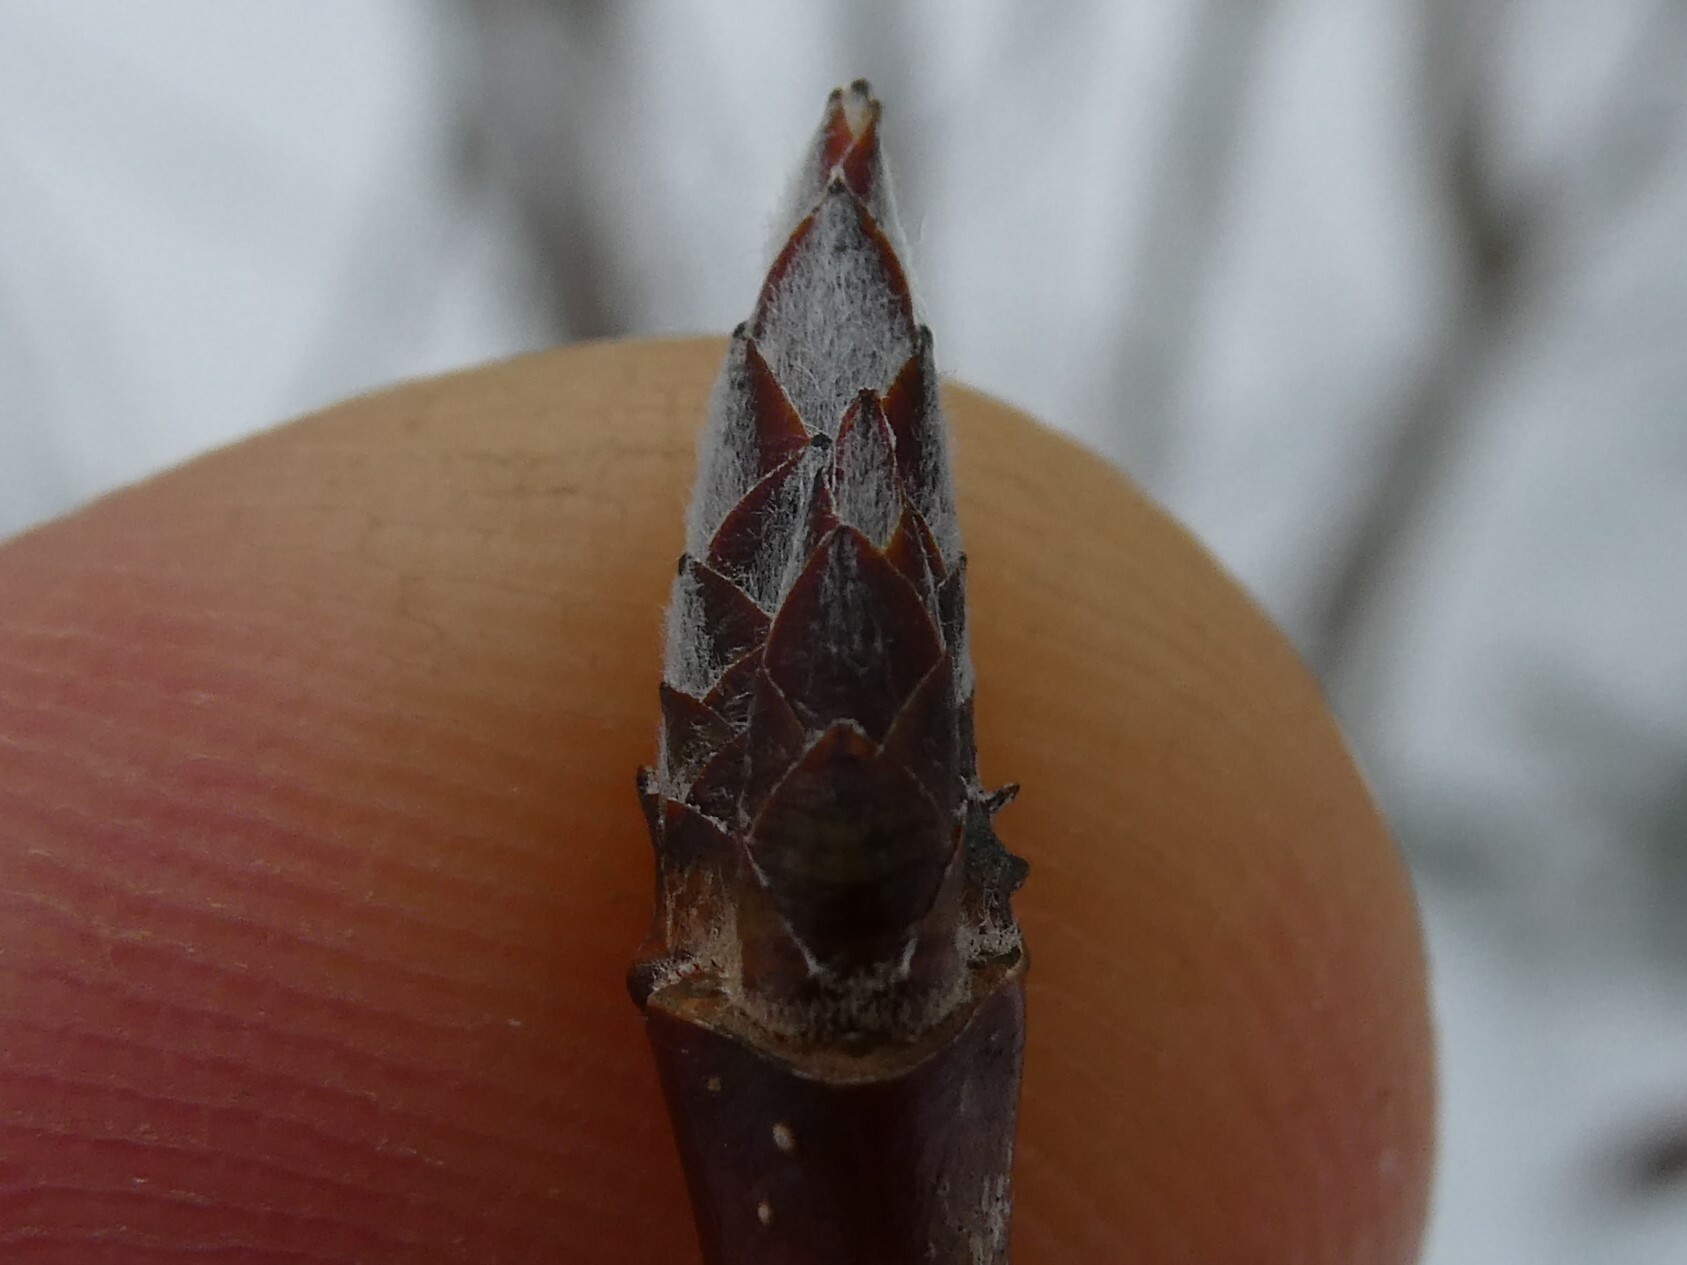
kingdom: Plantae
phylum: Tracheophyta
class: Magnoliopsida
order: Sapindales
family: Sapindaceae
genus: Acer
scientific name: Acer saccharum
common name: Sugar maple
